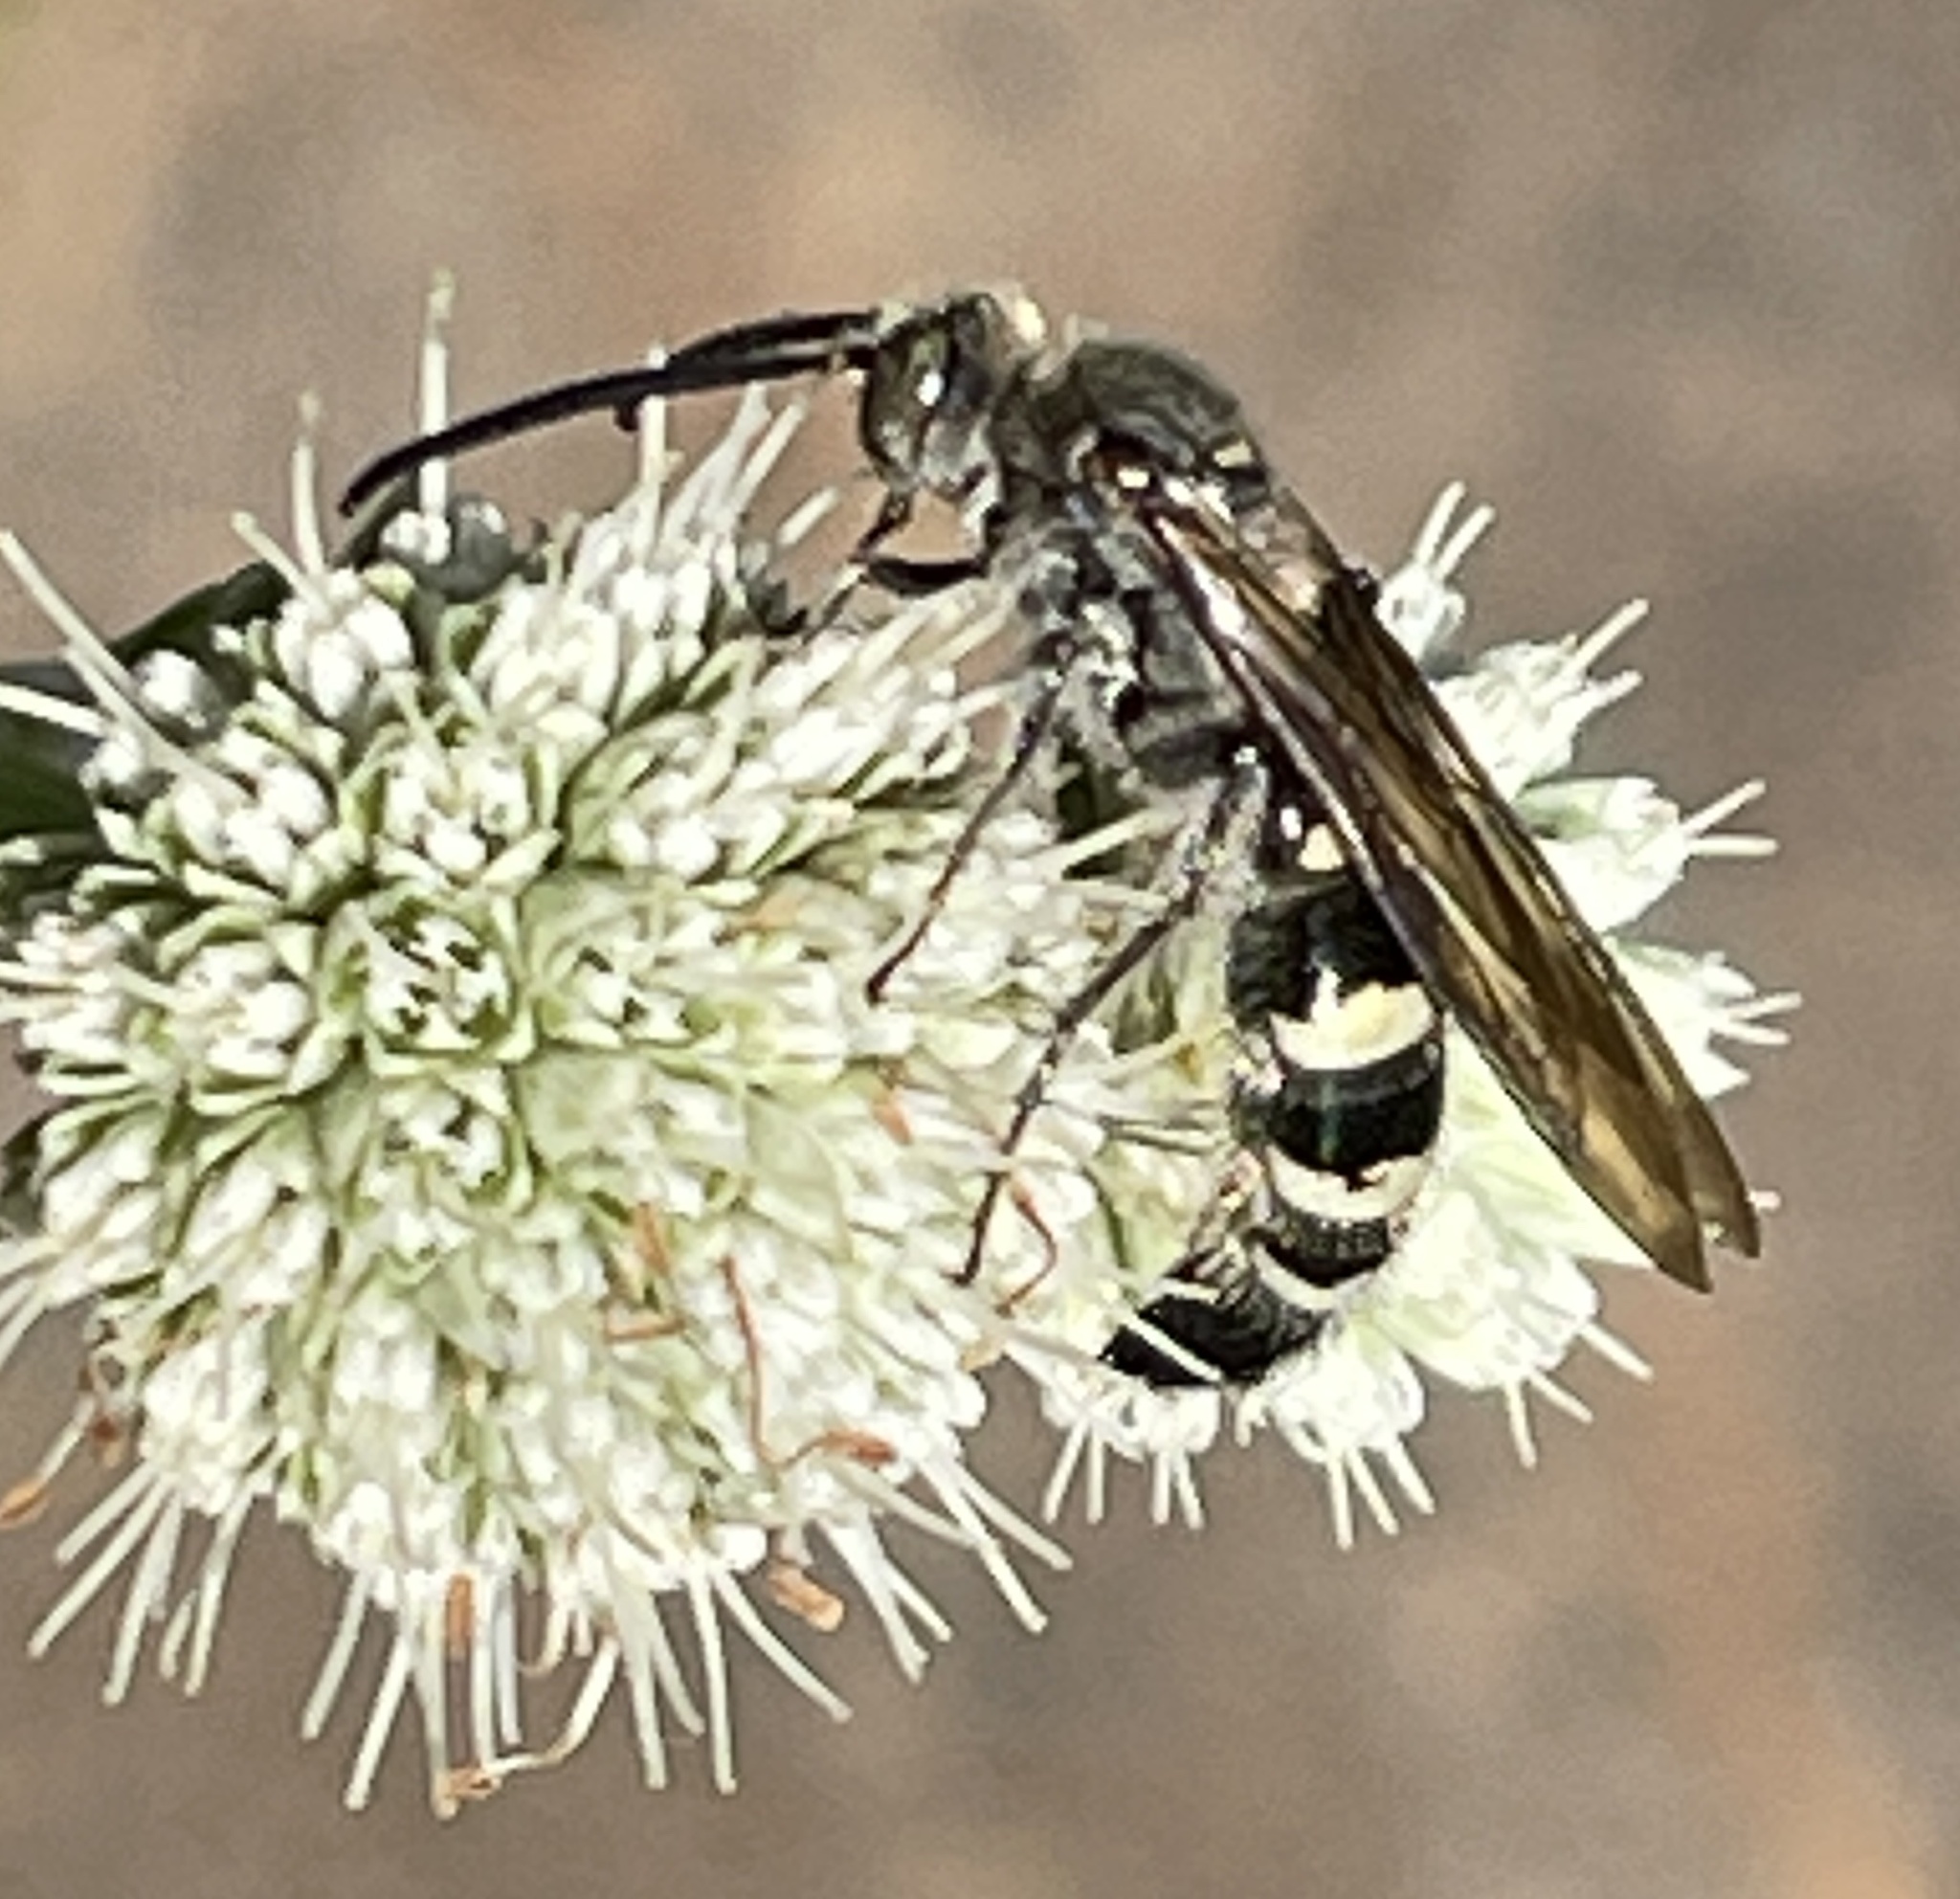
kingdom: Animalia
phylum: Arthropoda
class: Insecta
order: Hymenoptera
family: Scoliidae
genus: Dielis
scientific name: Dielis
